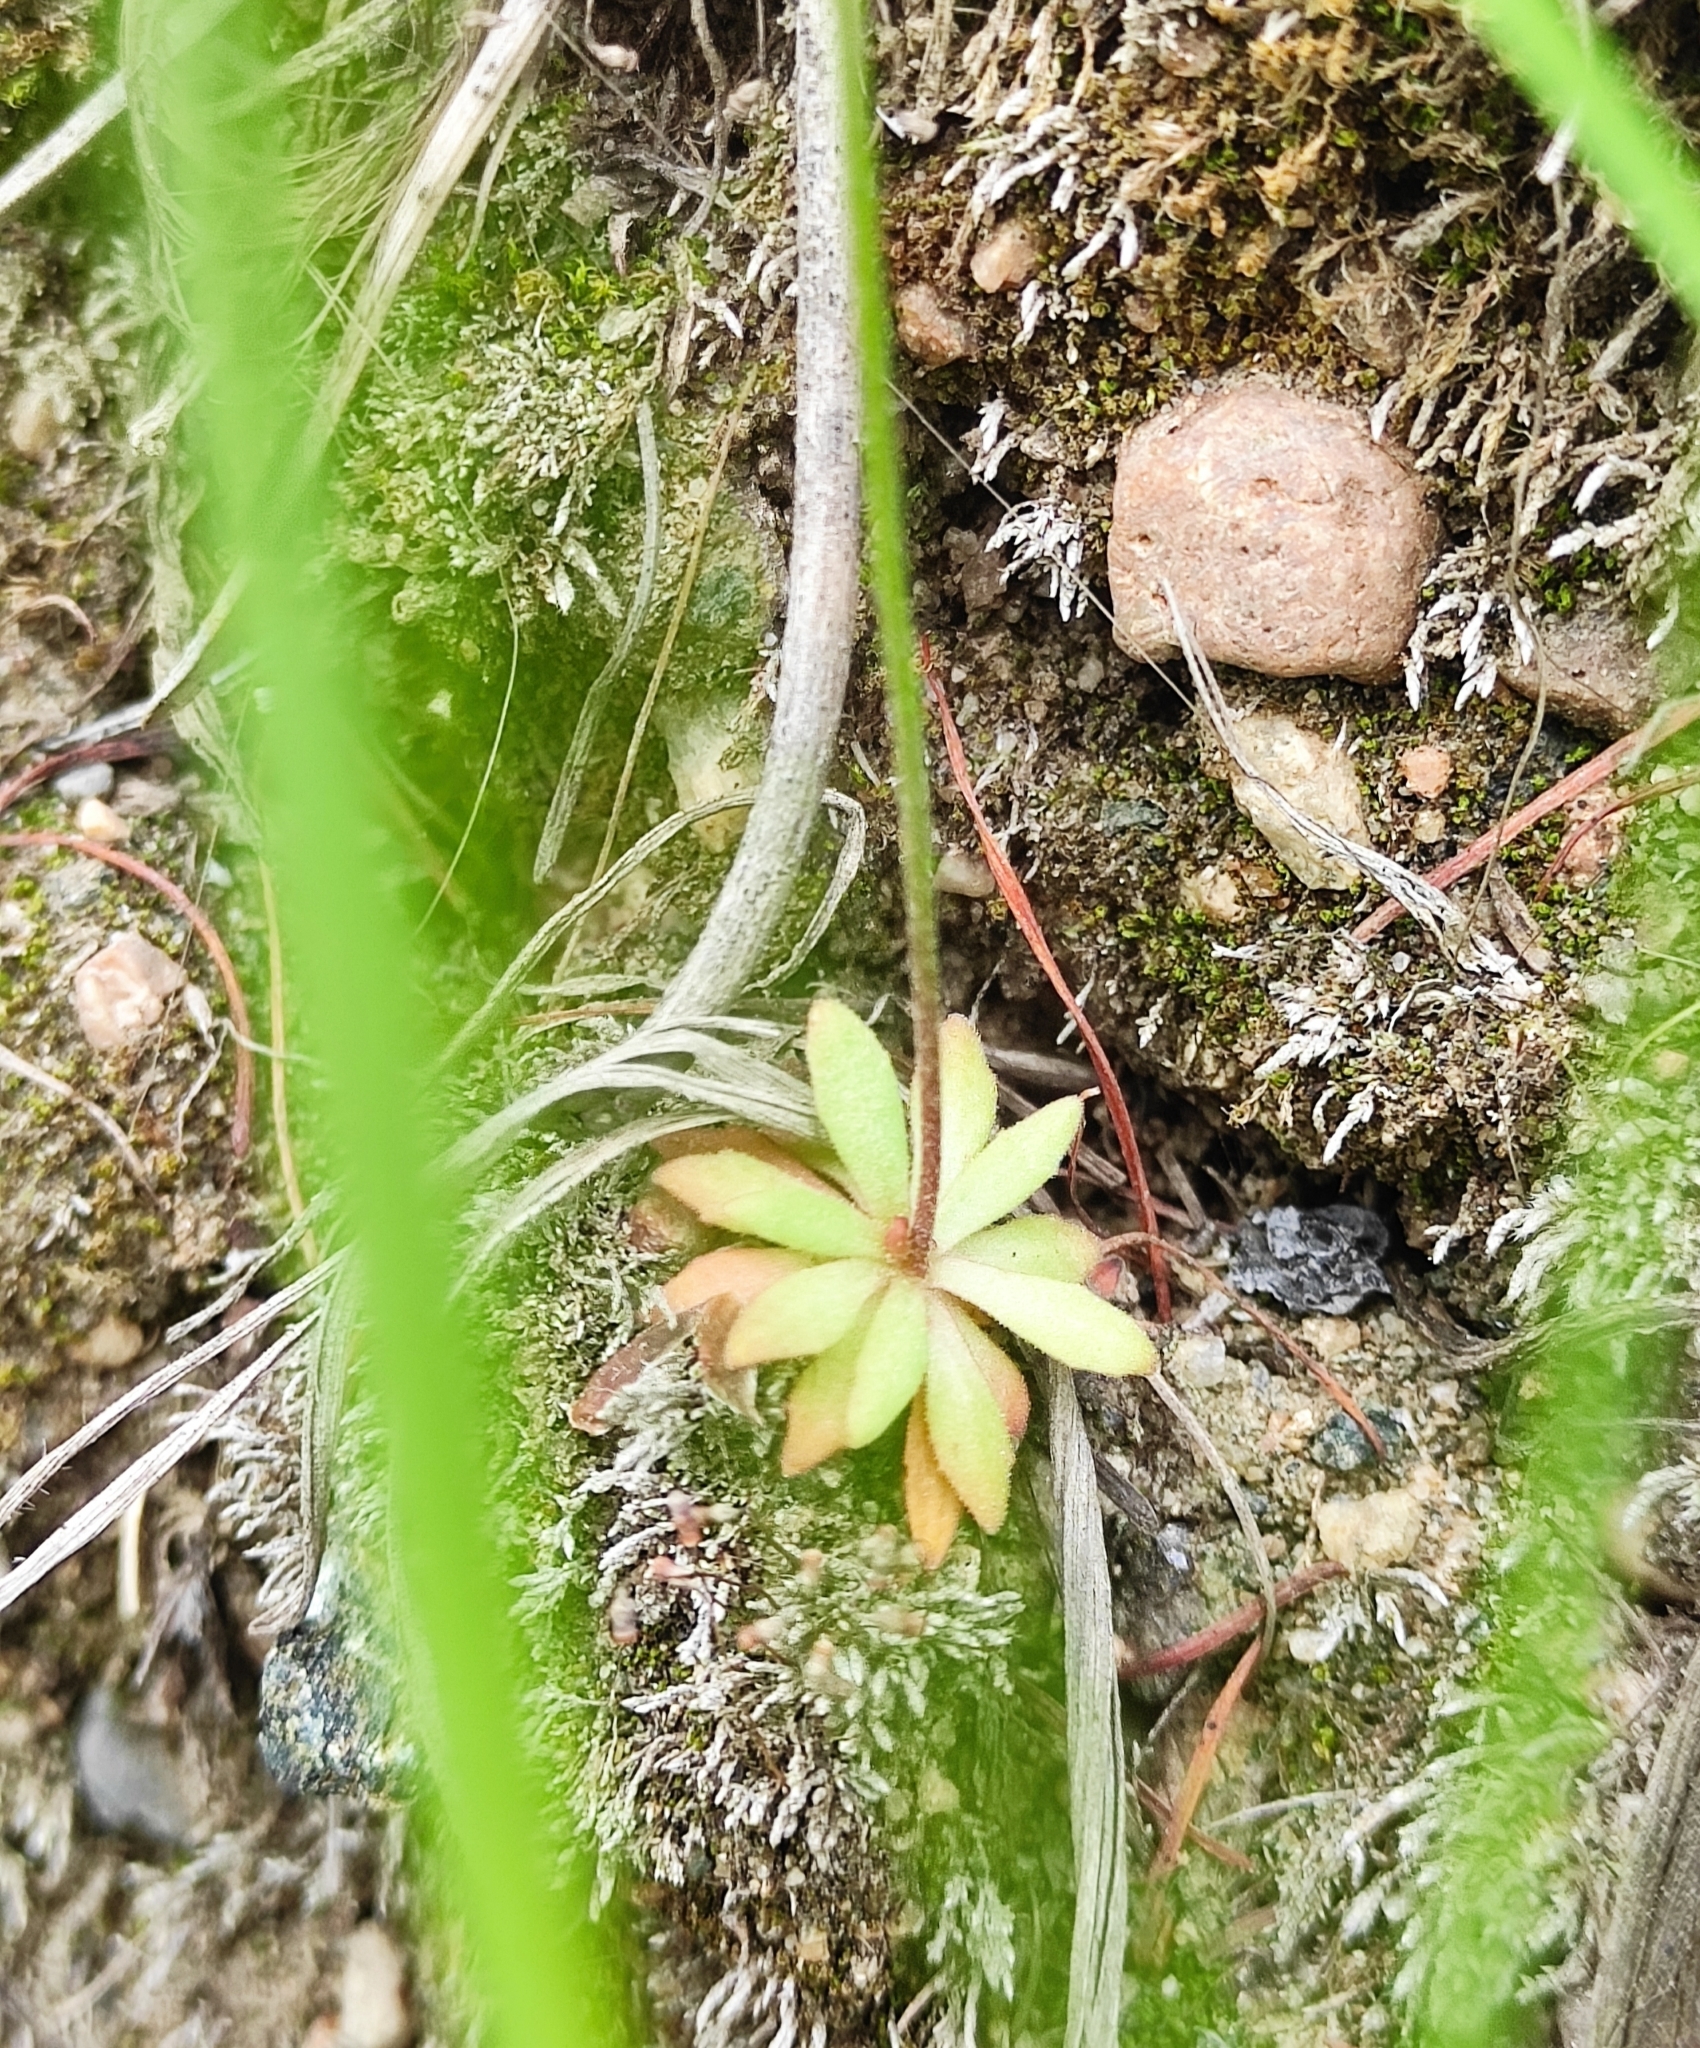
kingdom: Plantae
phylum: Tracheophyta
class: Magnoliopsida
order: Ericales
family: Primulaceae
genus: Androsace
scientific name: Androsace lactiflora
